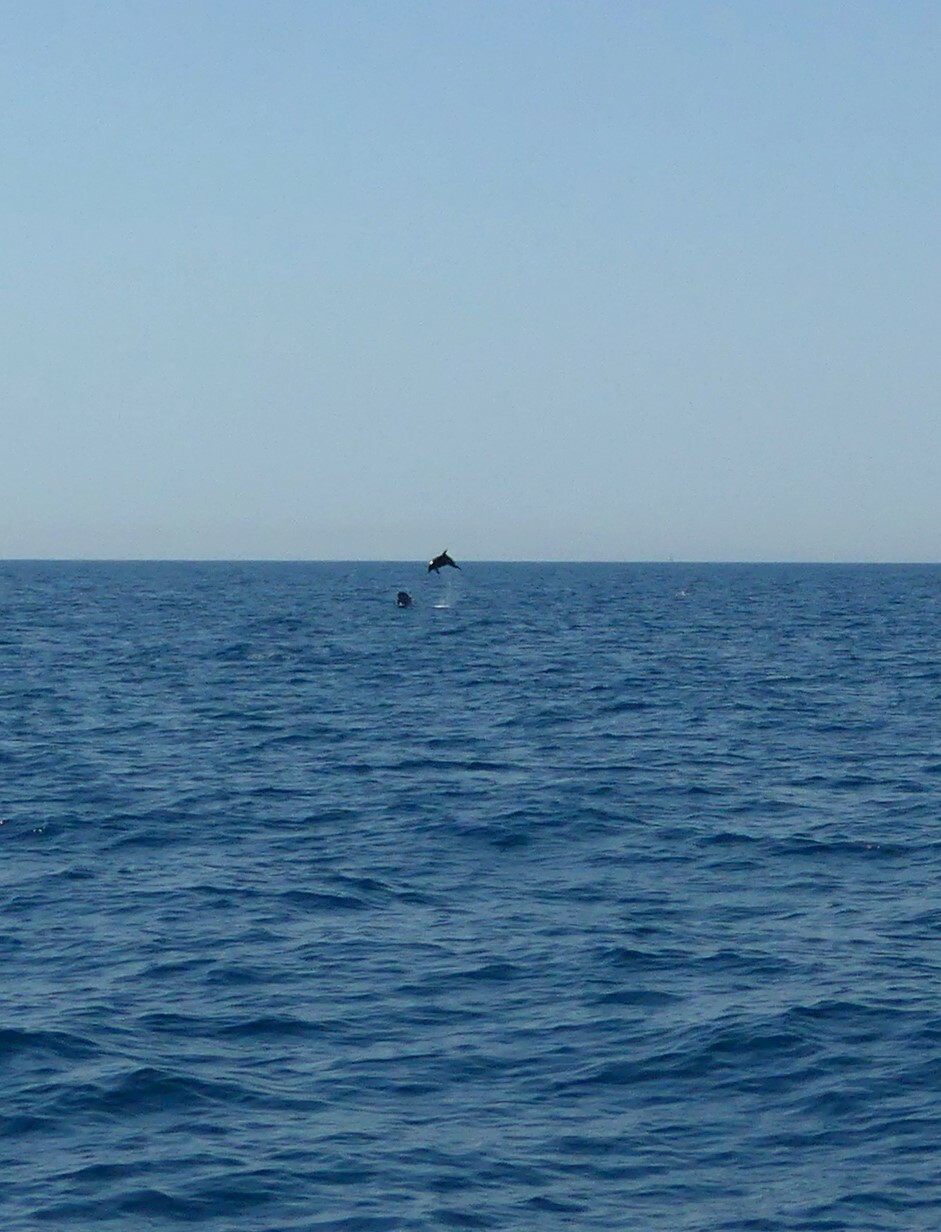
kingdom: Animalia
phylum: Chordata
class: Mammalia
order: Cetacea
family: Delphinidae
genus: Tursiops
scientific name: Tursiops truncatus
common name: Bottlenose dolphin
